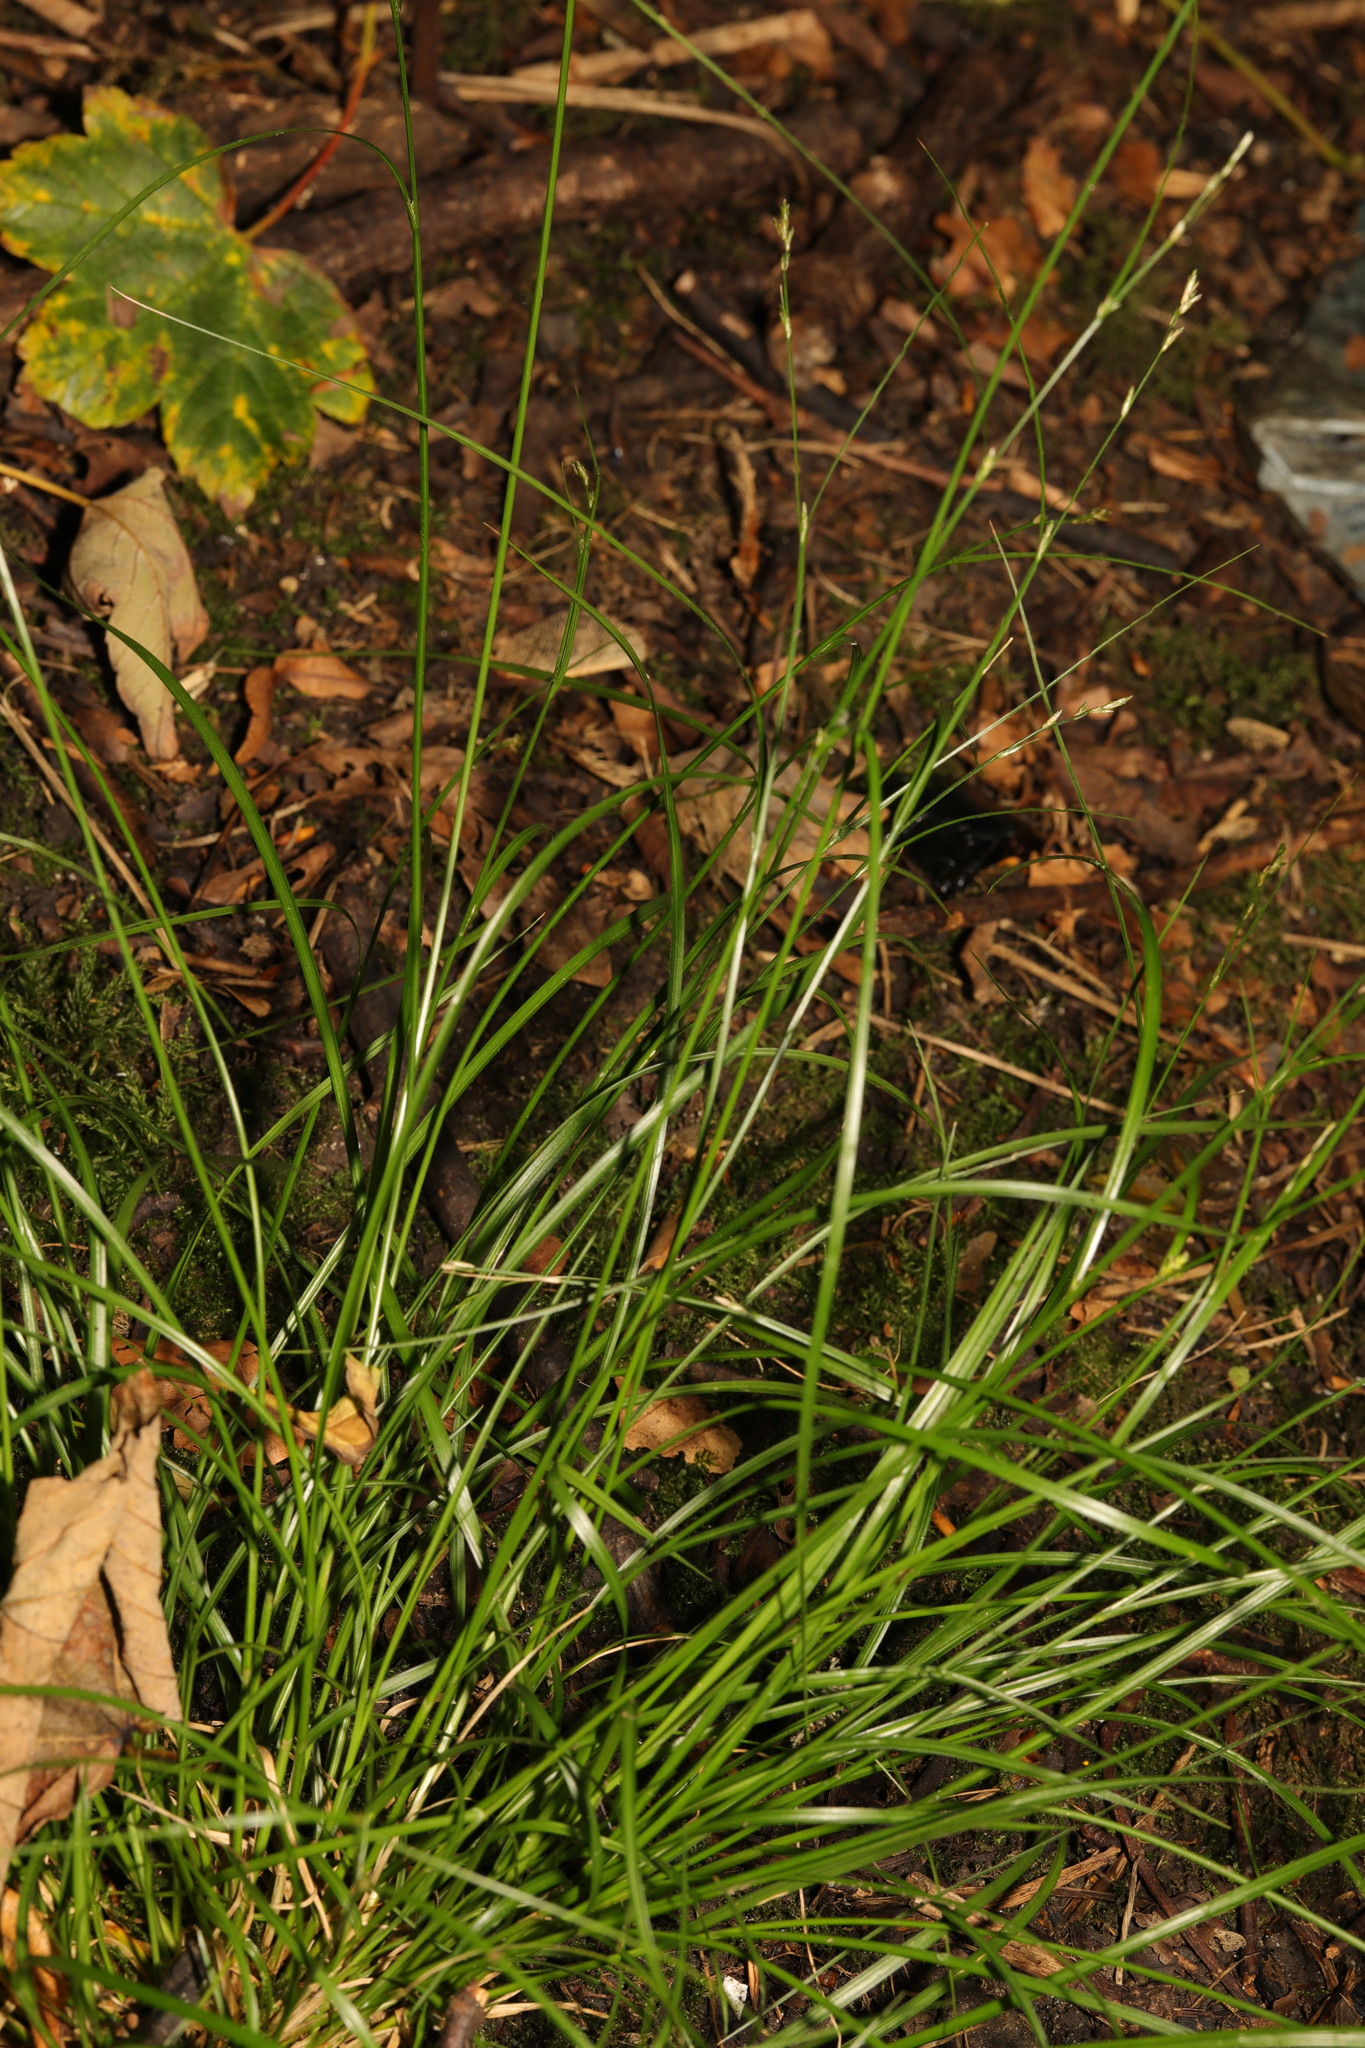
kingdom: Plantae
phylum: Tracheophyta
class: Liliopsida
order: Poales
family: Cyperaceae
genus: Carex
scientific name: Carex remota
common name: Remote sedge
